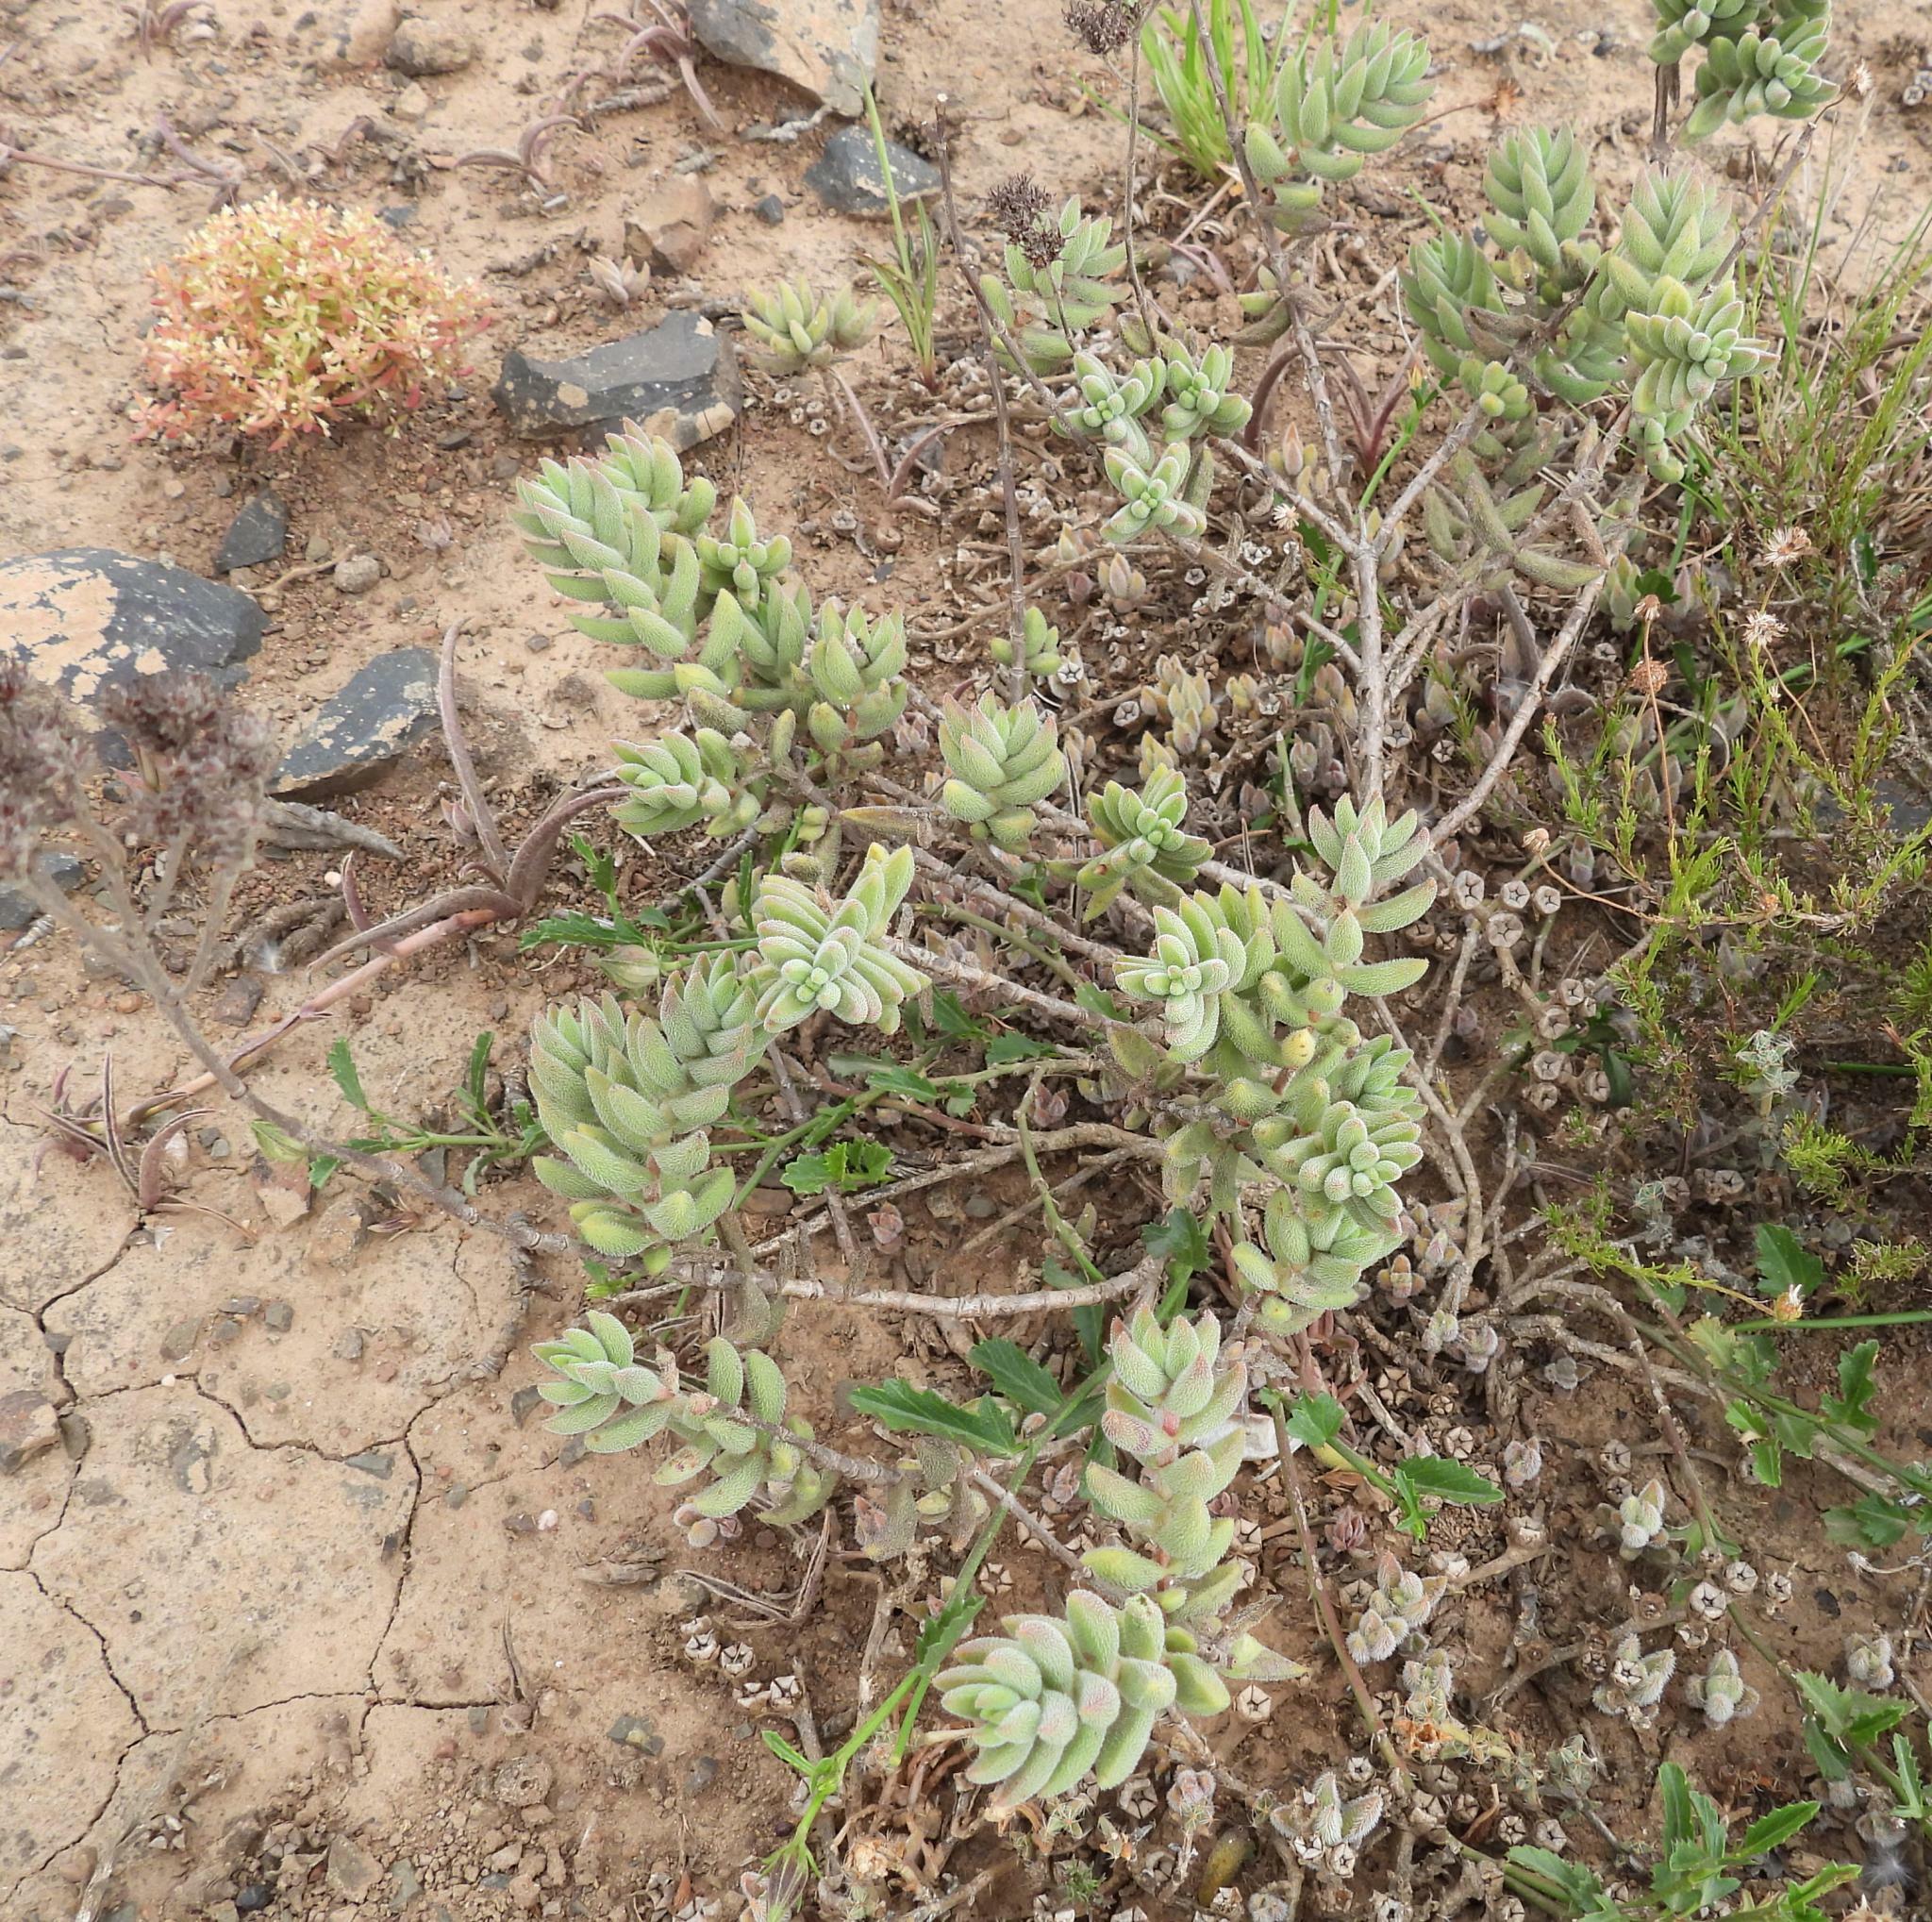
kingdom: Plantae
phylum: Tracheophyta
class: Magnoliopsida
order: Saxifragales
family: Crassulaceae
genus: Crassula
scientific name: Crassula mesembryanthoides
